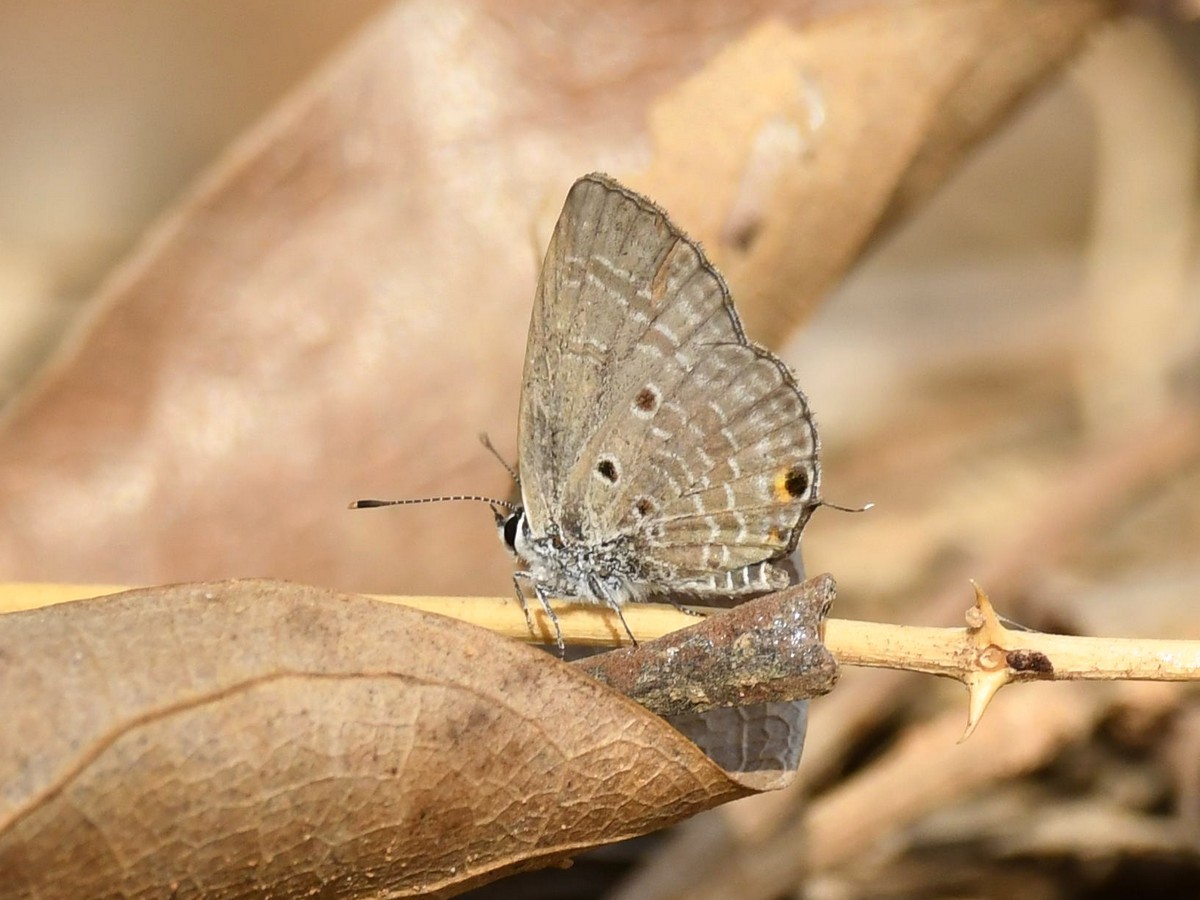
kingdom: Animalia
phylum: Arthropoda
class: Insecta
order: Lepidoptera
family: Lycaenidae
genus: Luthrodes
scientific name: Luthrodes pandava
